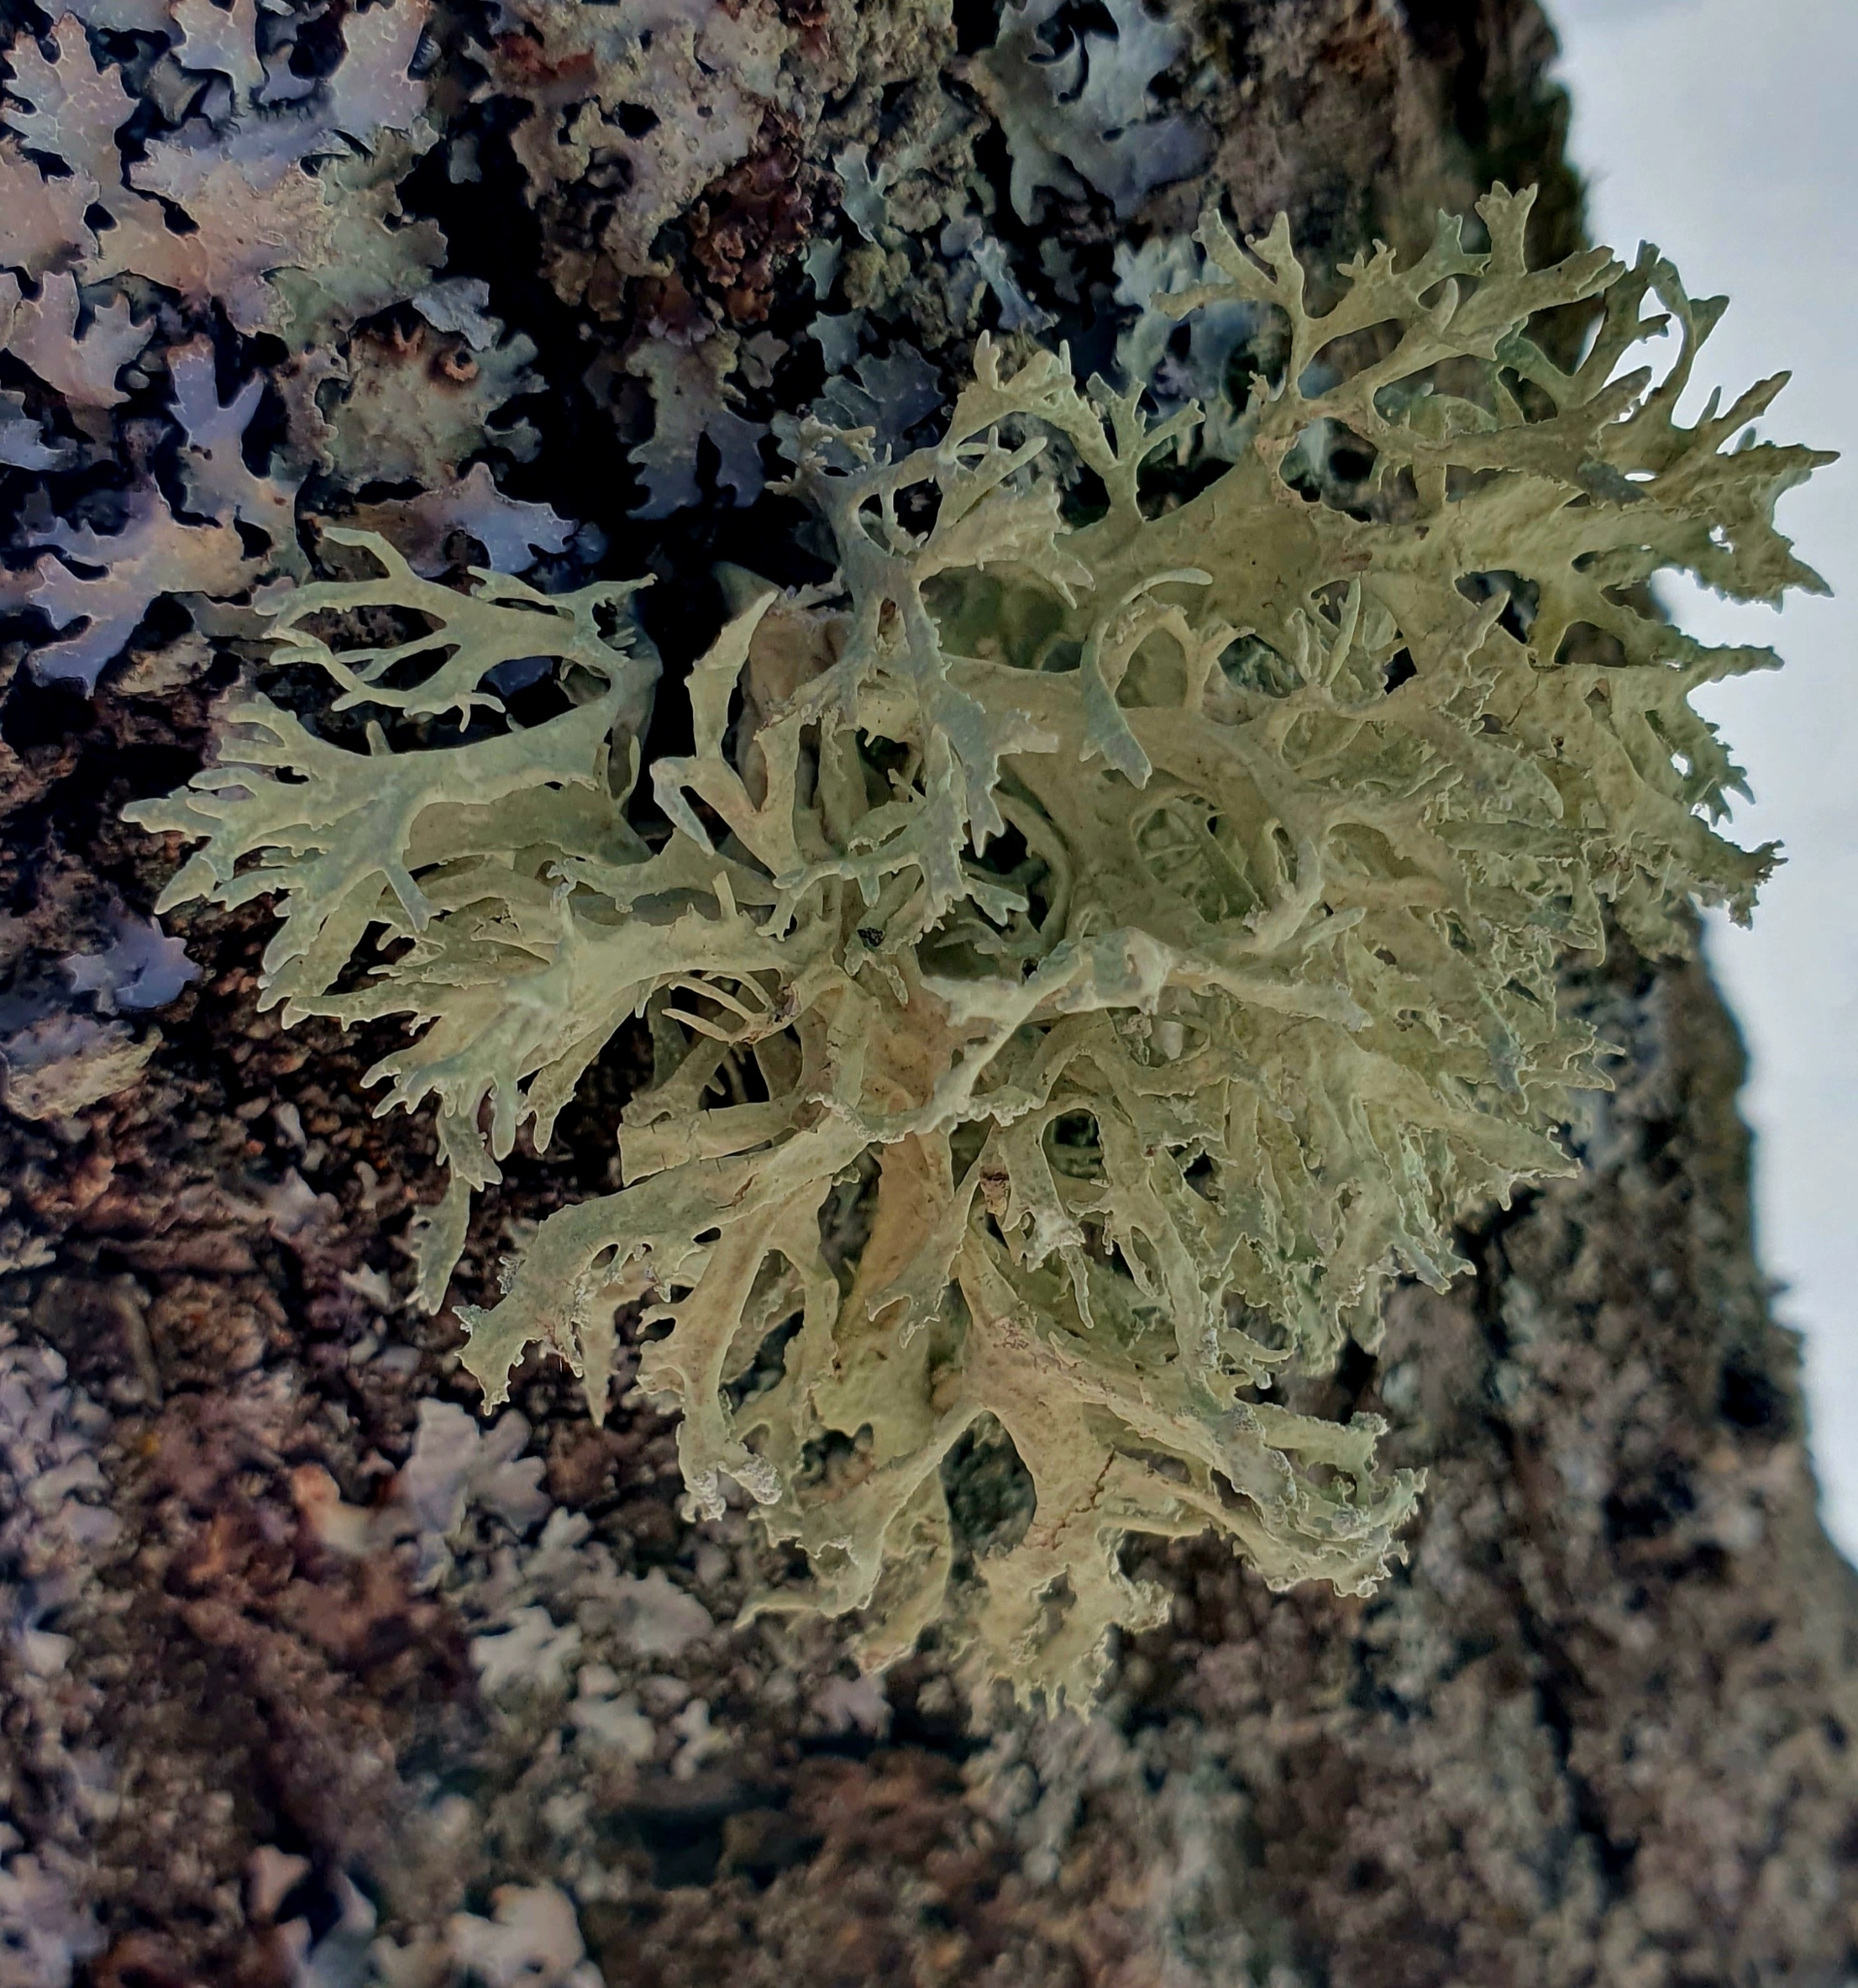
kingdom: Fungi
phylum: Ascomycota
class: Lecanoromycetes
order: Lecanorales
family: Parmeliaceae
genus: Evernia
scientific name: Evernia prunastri
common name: Oak moss
